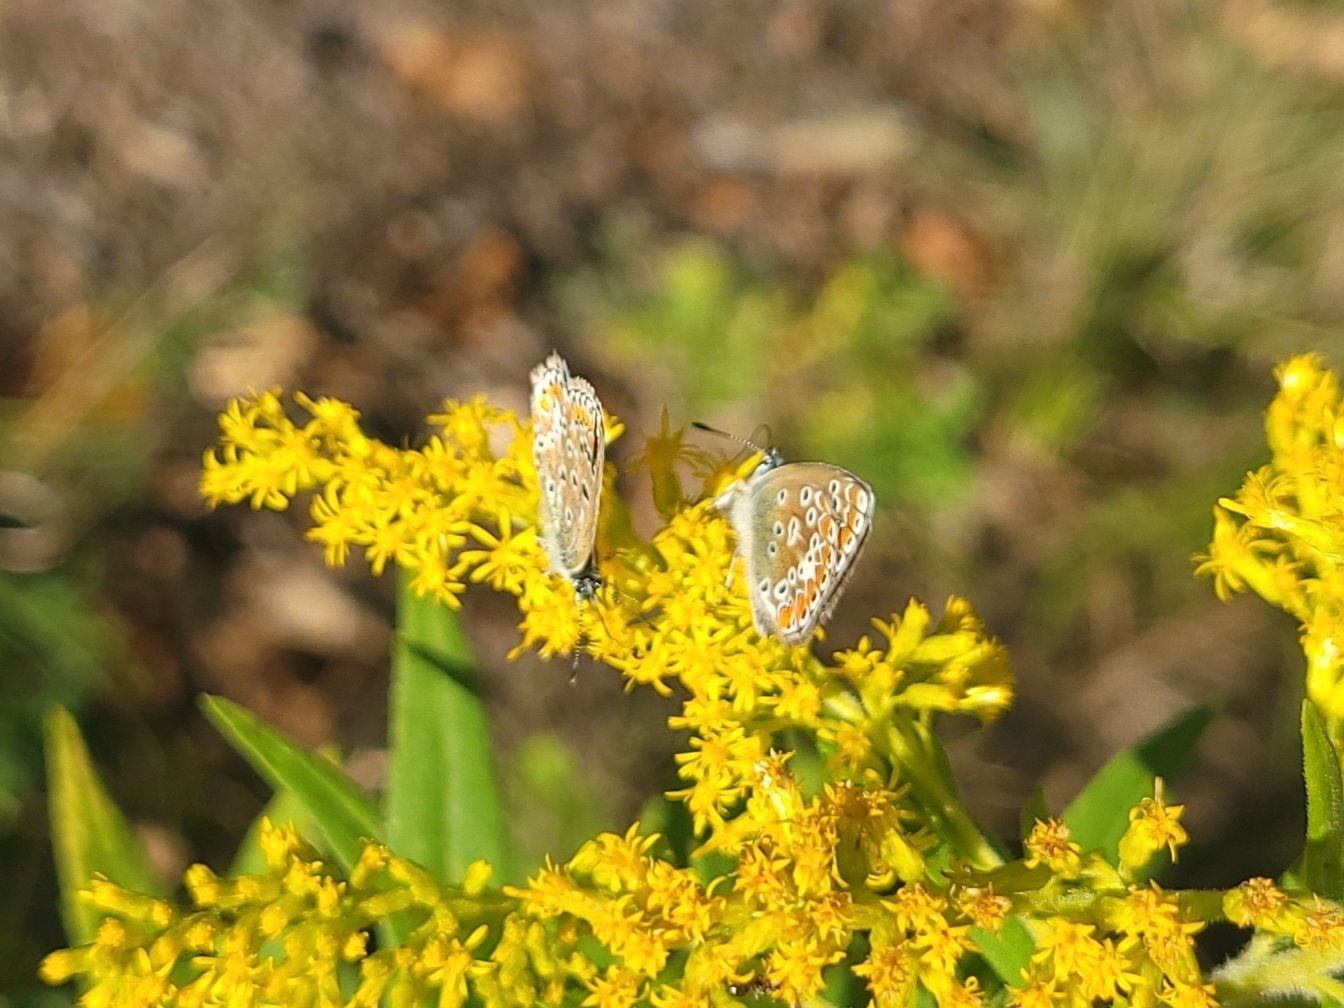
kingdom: Animalia
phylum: Arthropoda
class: Insecta
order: Lepidoptera
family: Lycaenidae
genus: Polyommatus
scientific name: Polyommatus icarus
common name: Common blue
